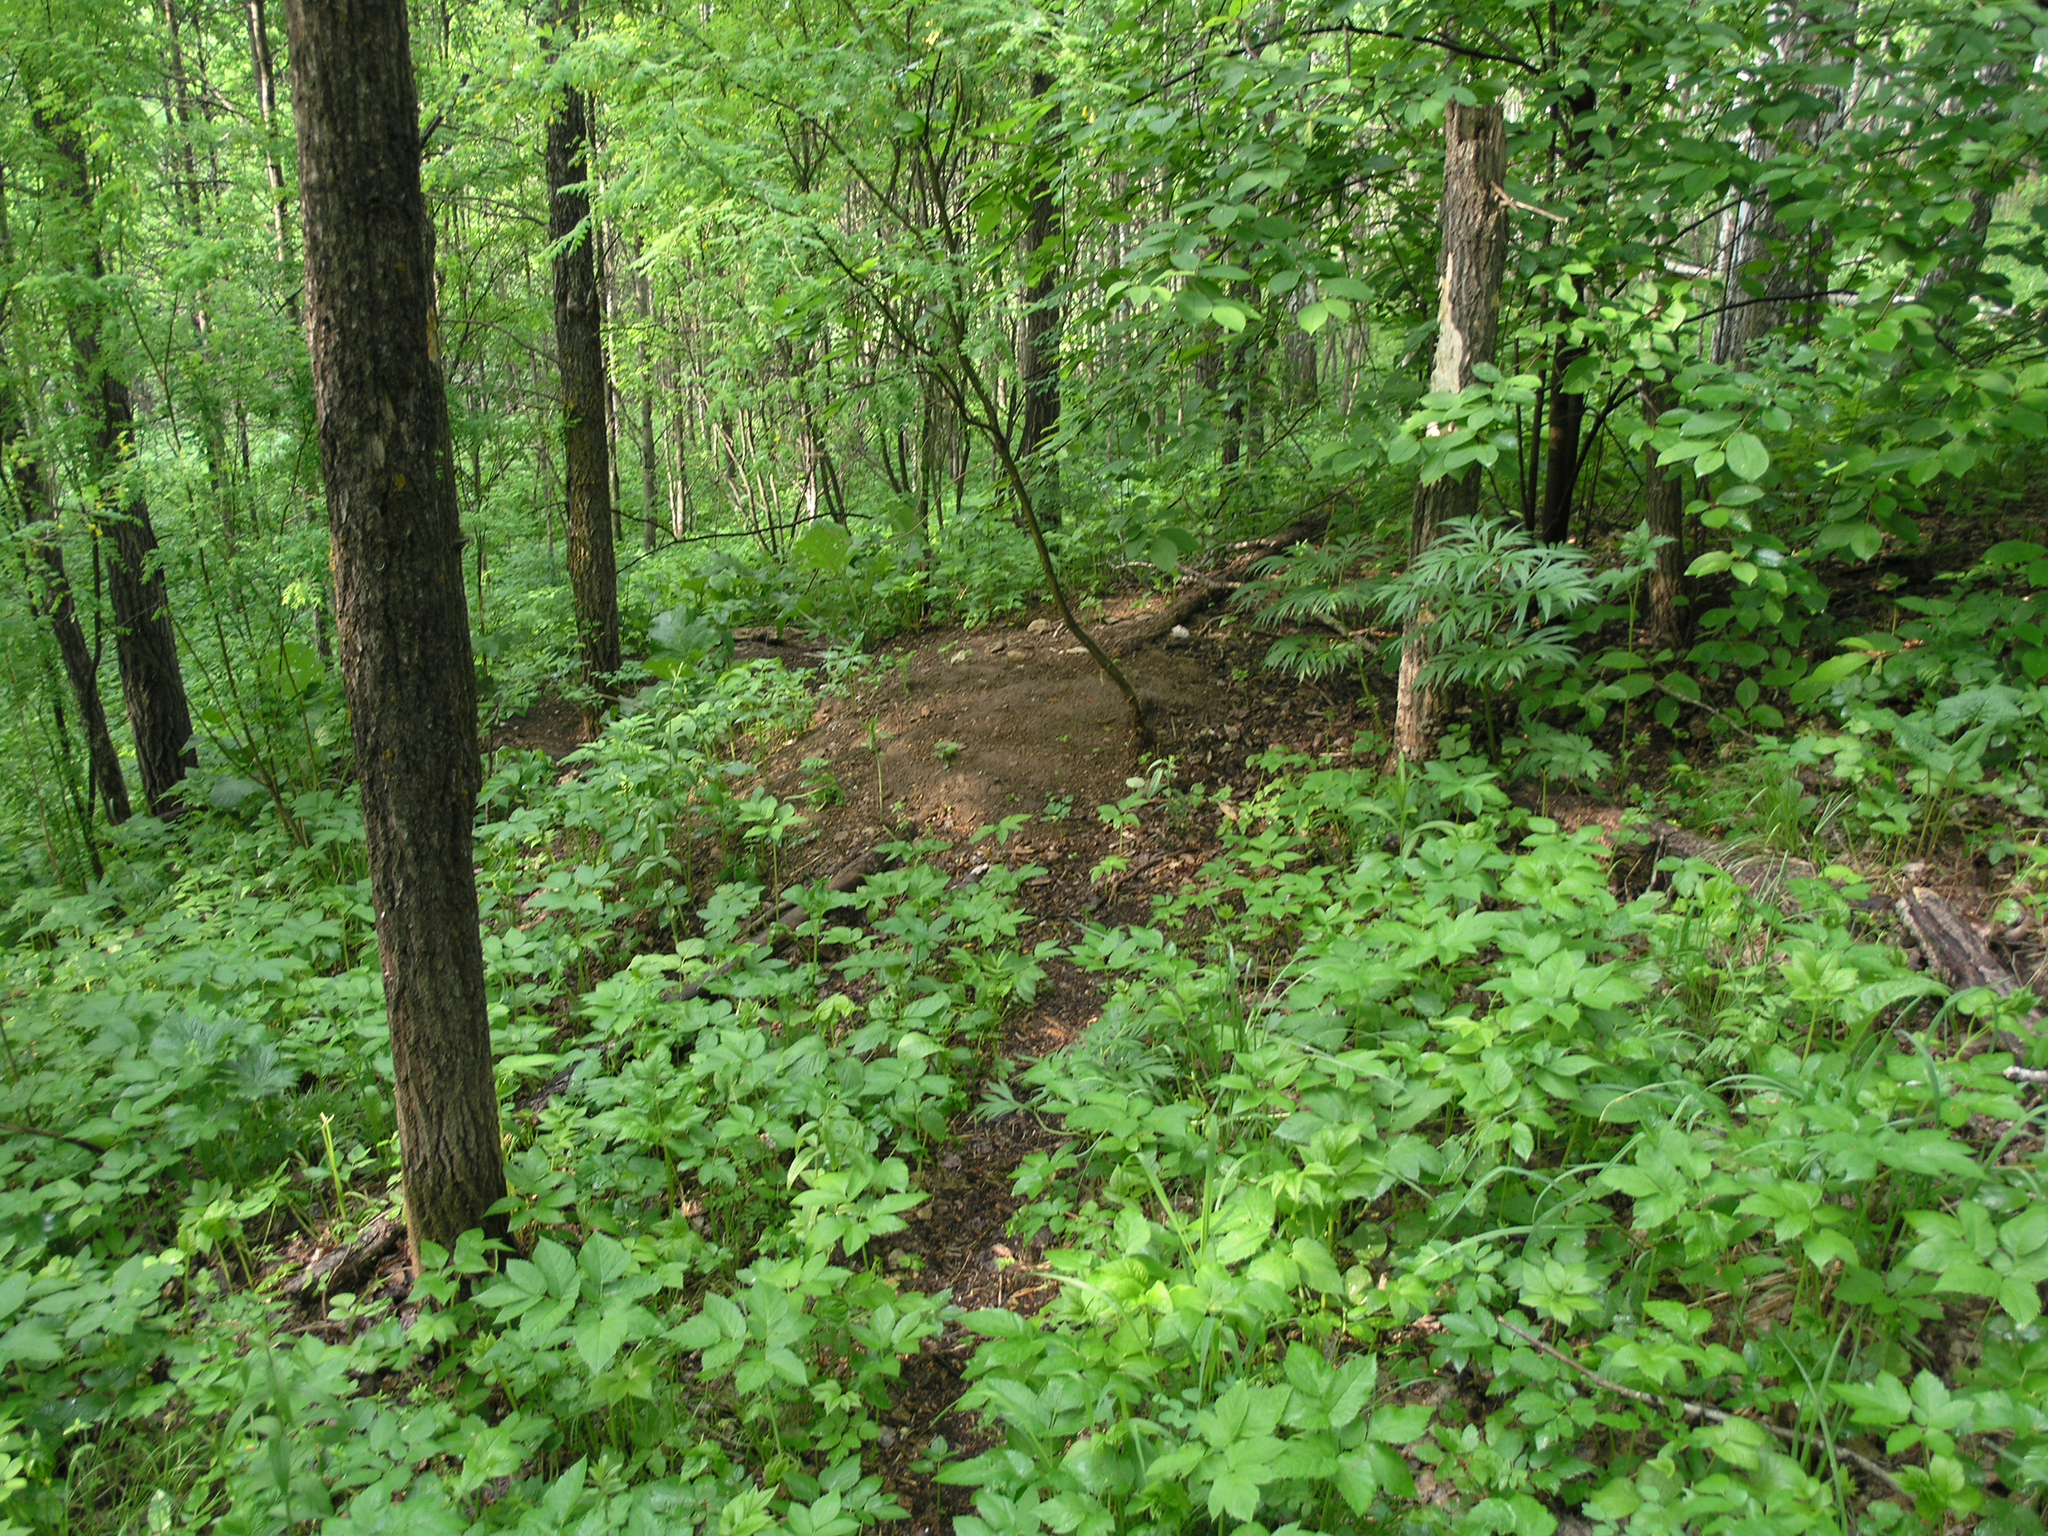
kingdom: Plantae
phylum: Tracheophyta
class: Magnoliopsida
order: Apiales
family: Apiaceae
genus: Aegopodium
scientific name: Aegopodium podagraria
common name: Ground-elder
